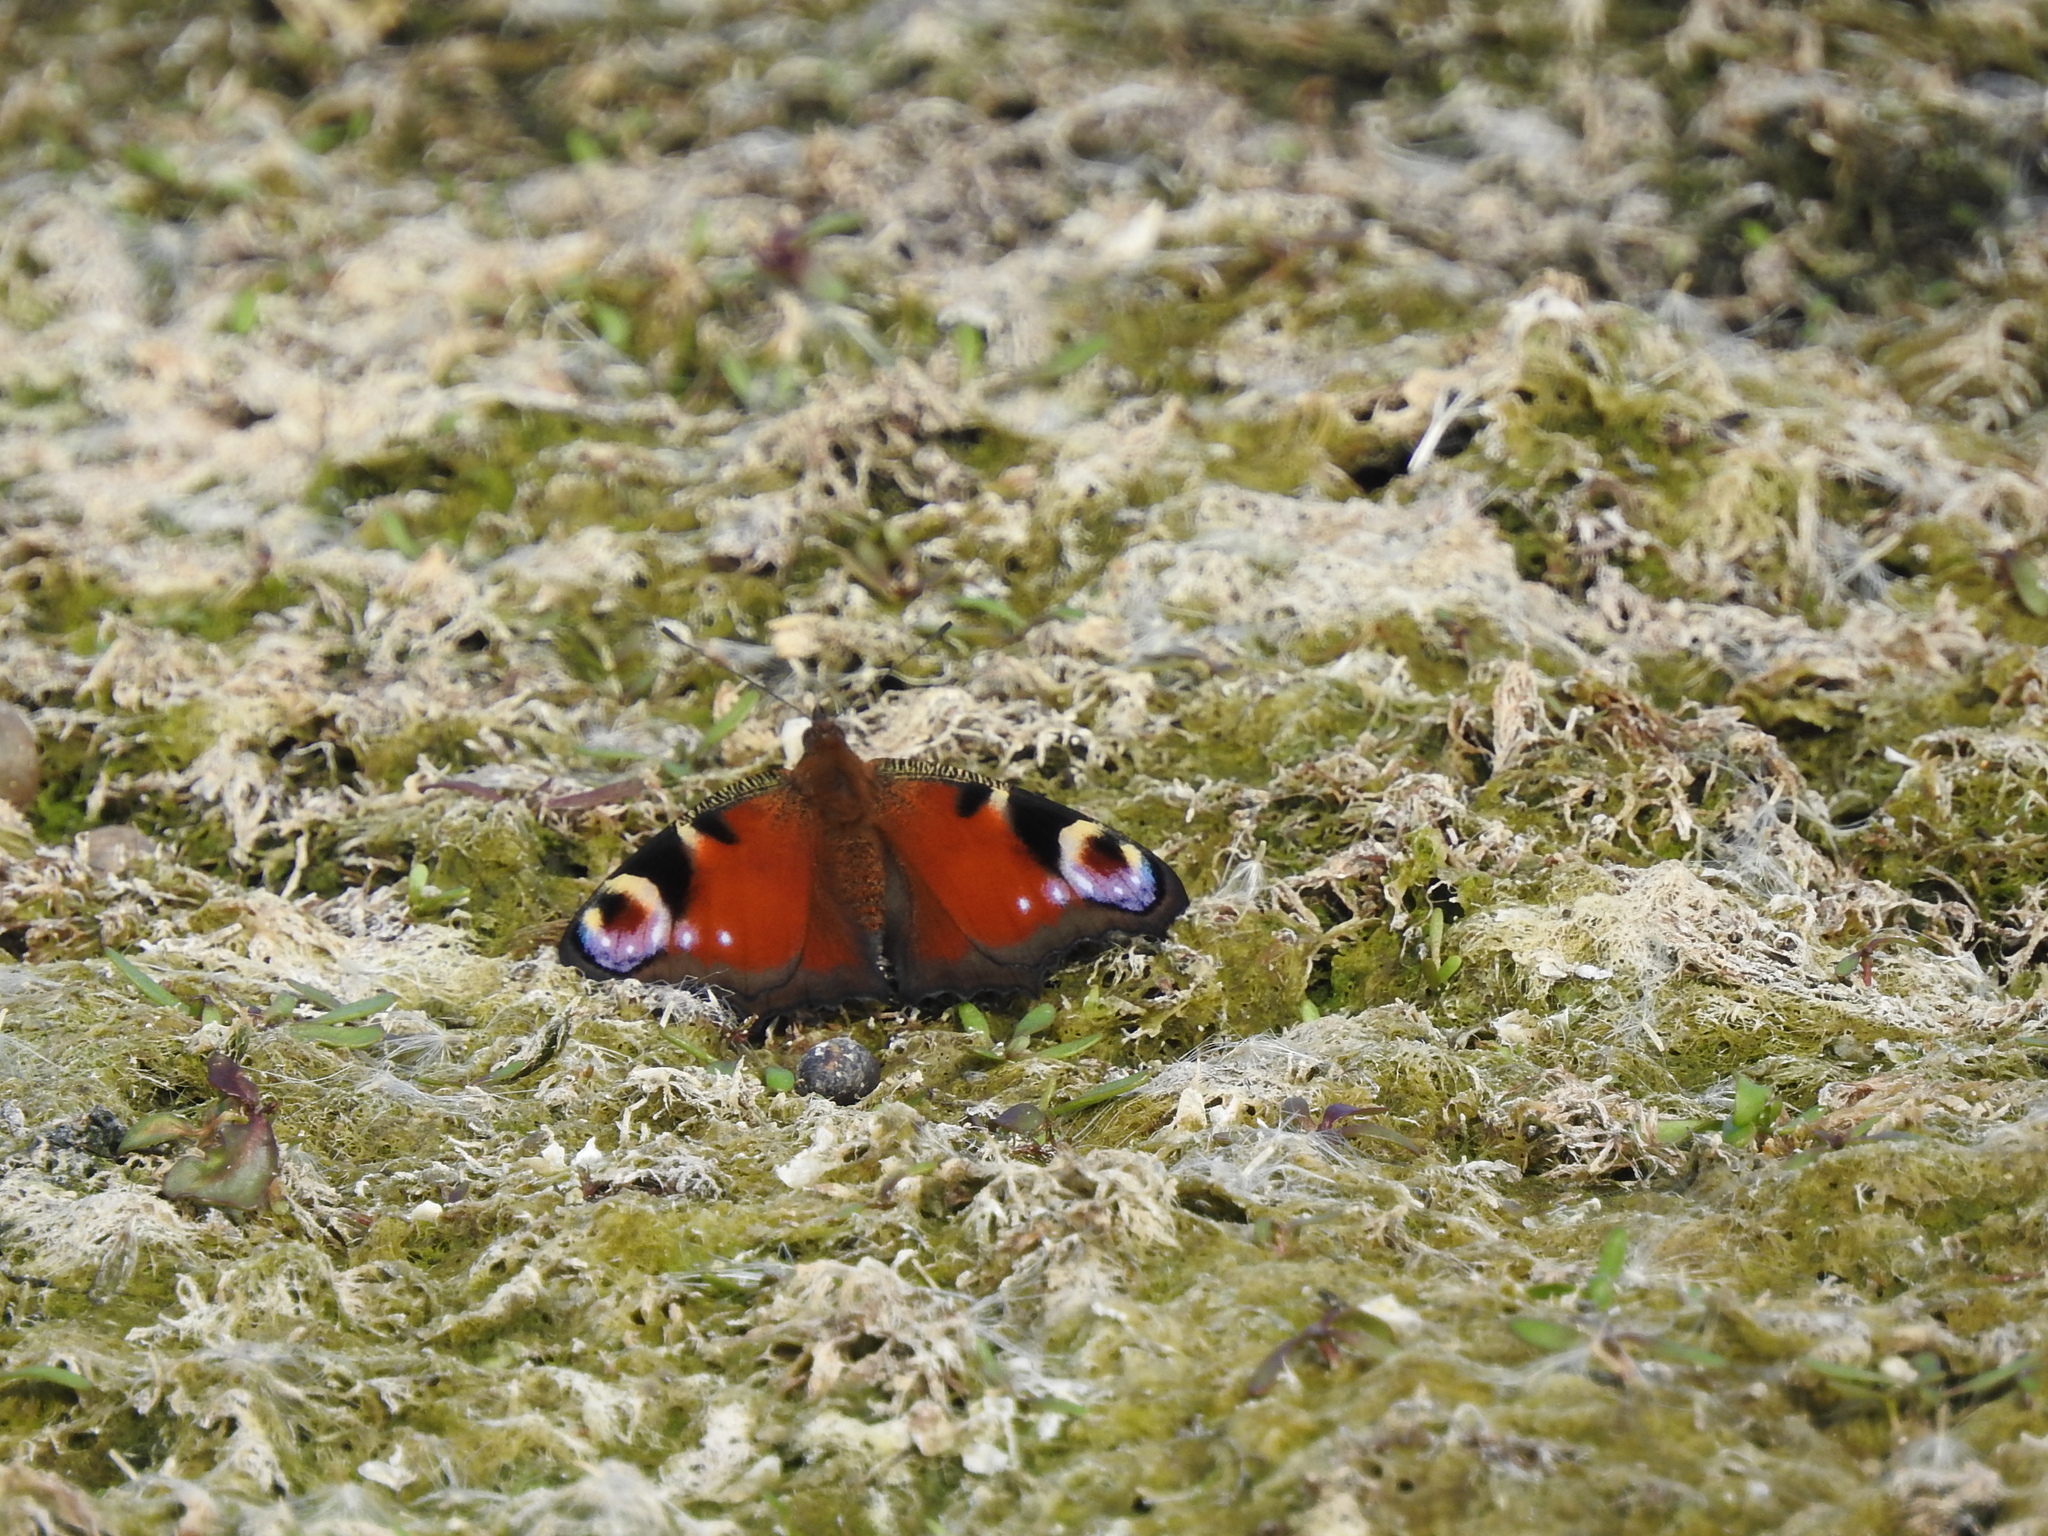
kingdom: Animalia
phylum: Arthropoda
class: Insecta
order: Lepidoptera
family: Nymphalidae
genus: Aglais
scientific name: Aglais io
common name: Peacock
